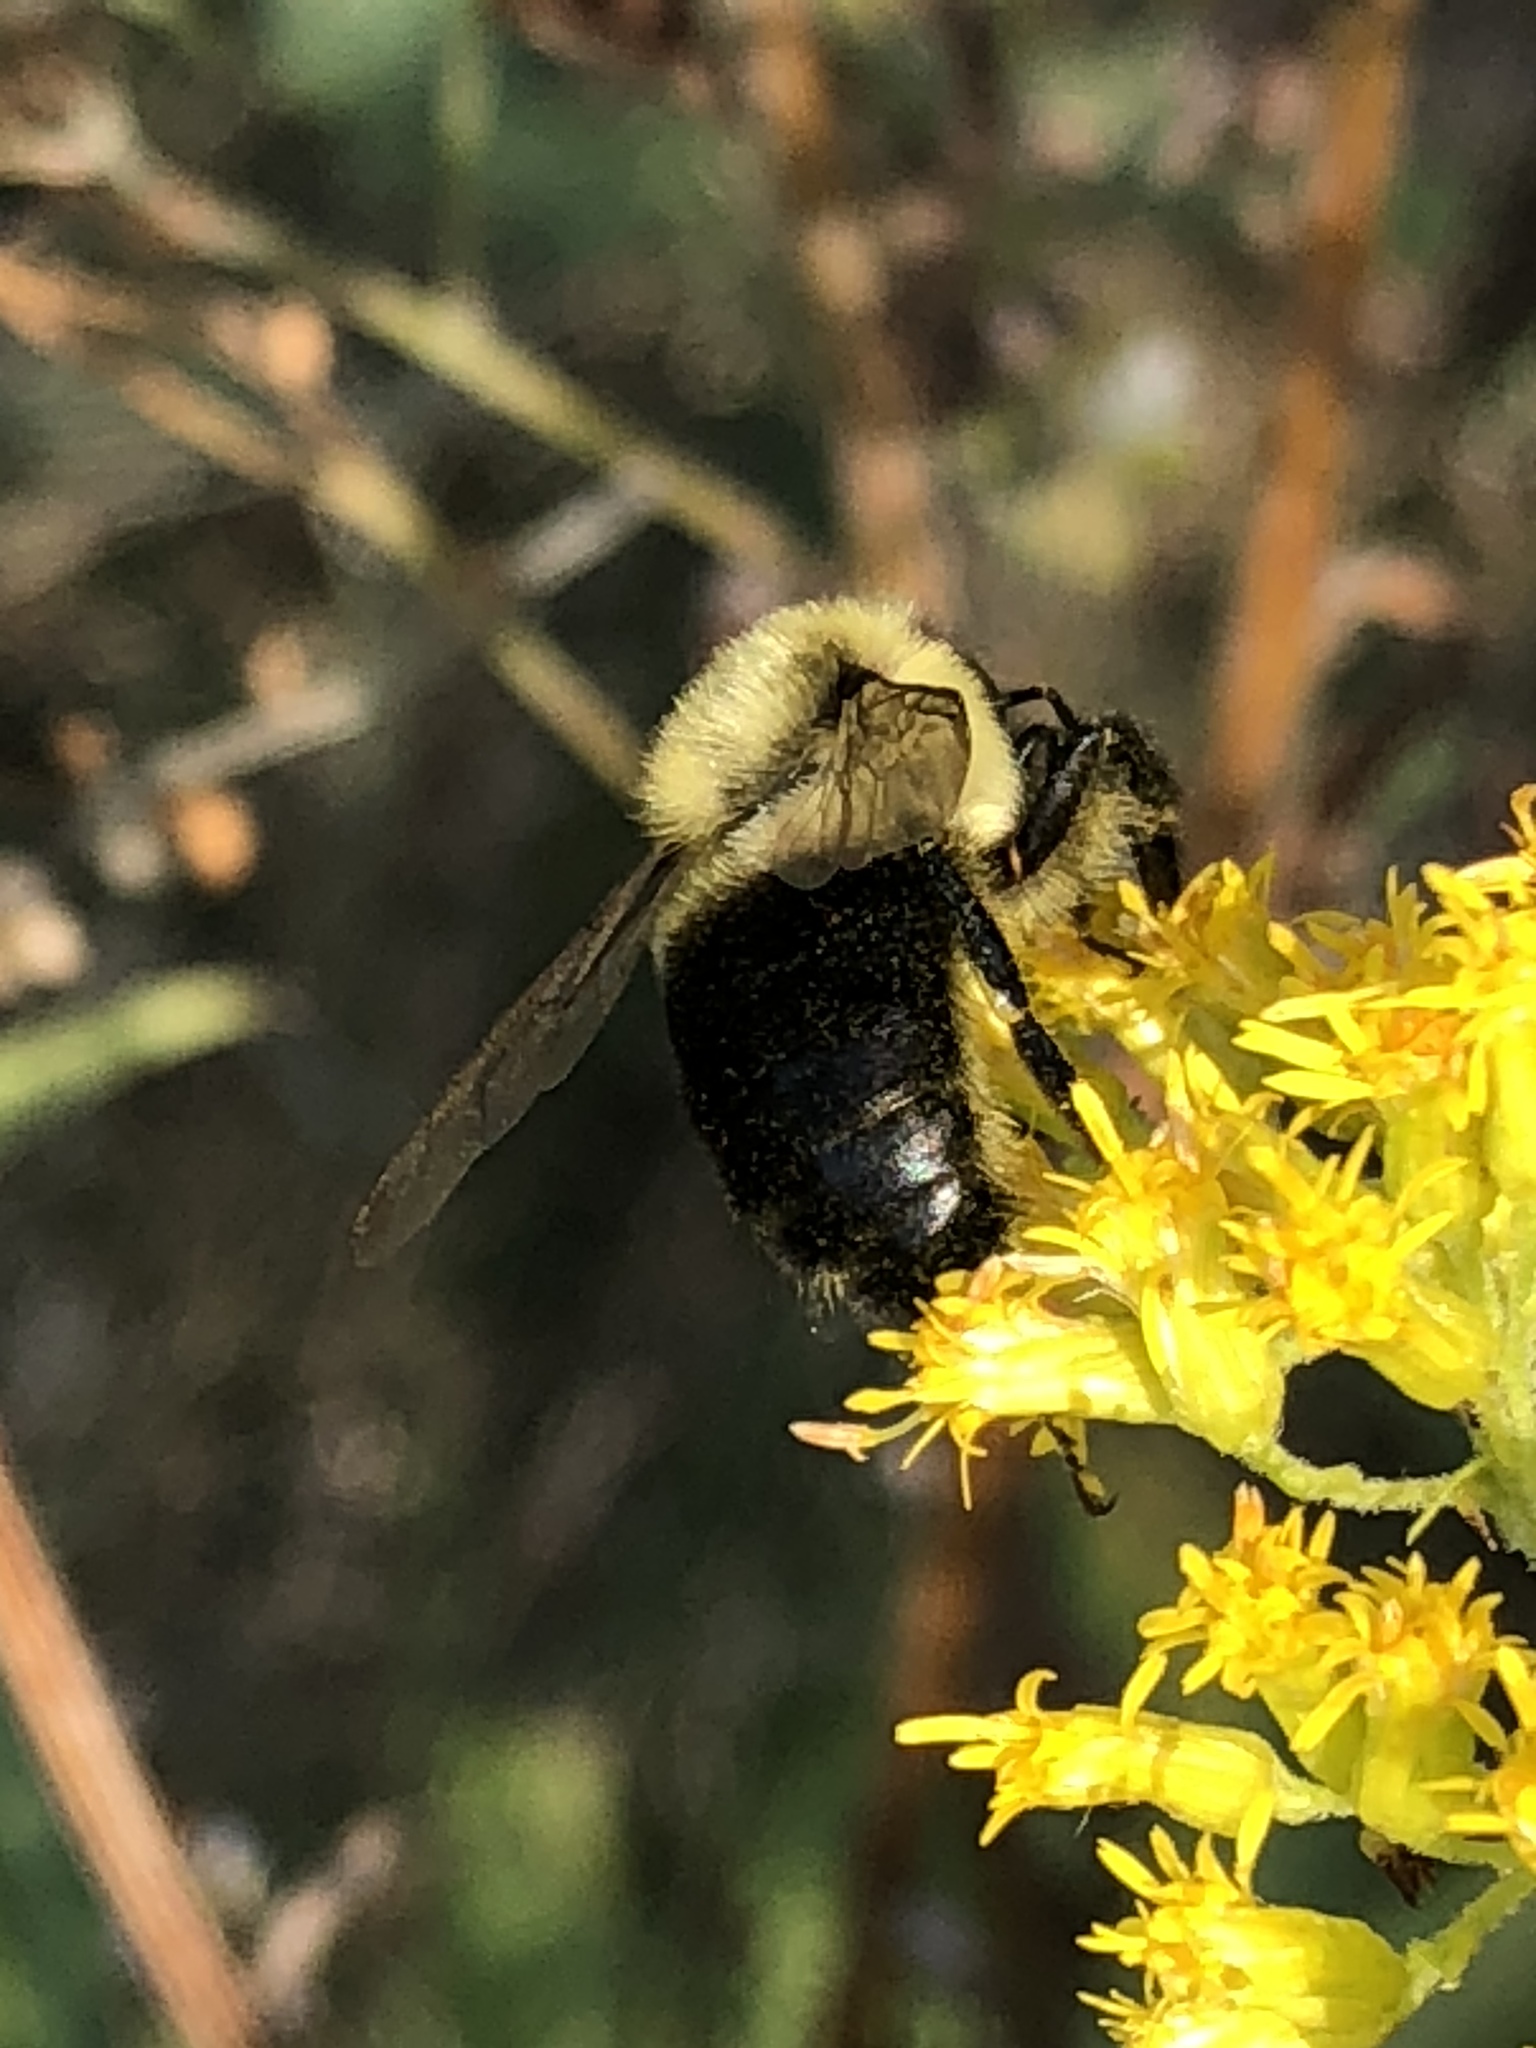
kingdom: Animalia
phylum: Arthropoda
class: Insecta
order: Hymenoptera
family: Apidae
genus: Bombus
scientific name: Bombus impatiens
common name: Common eastern bumble bee
